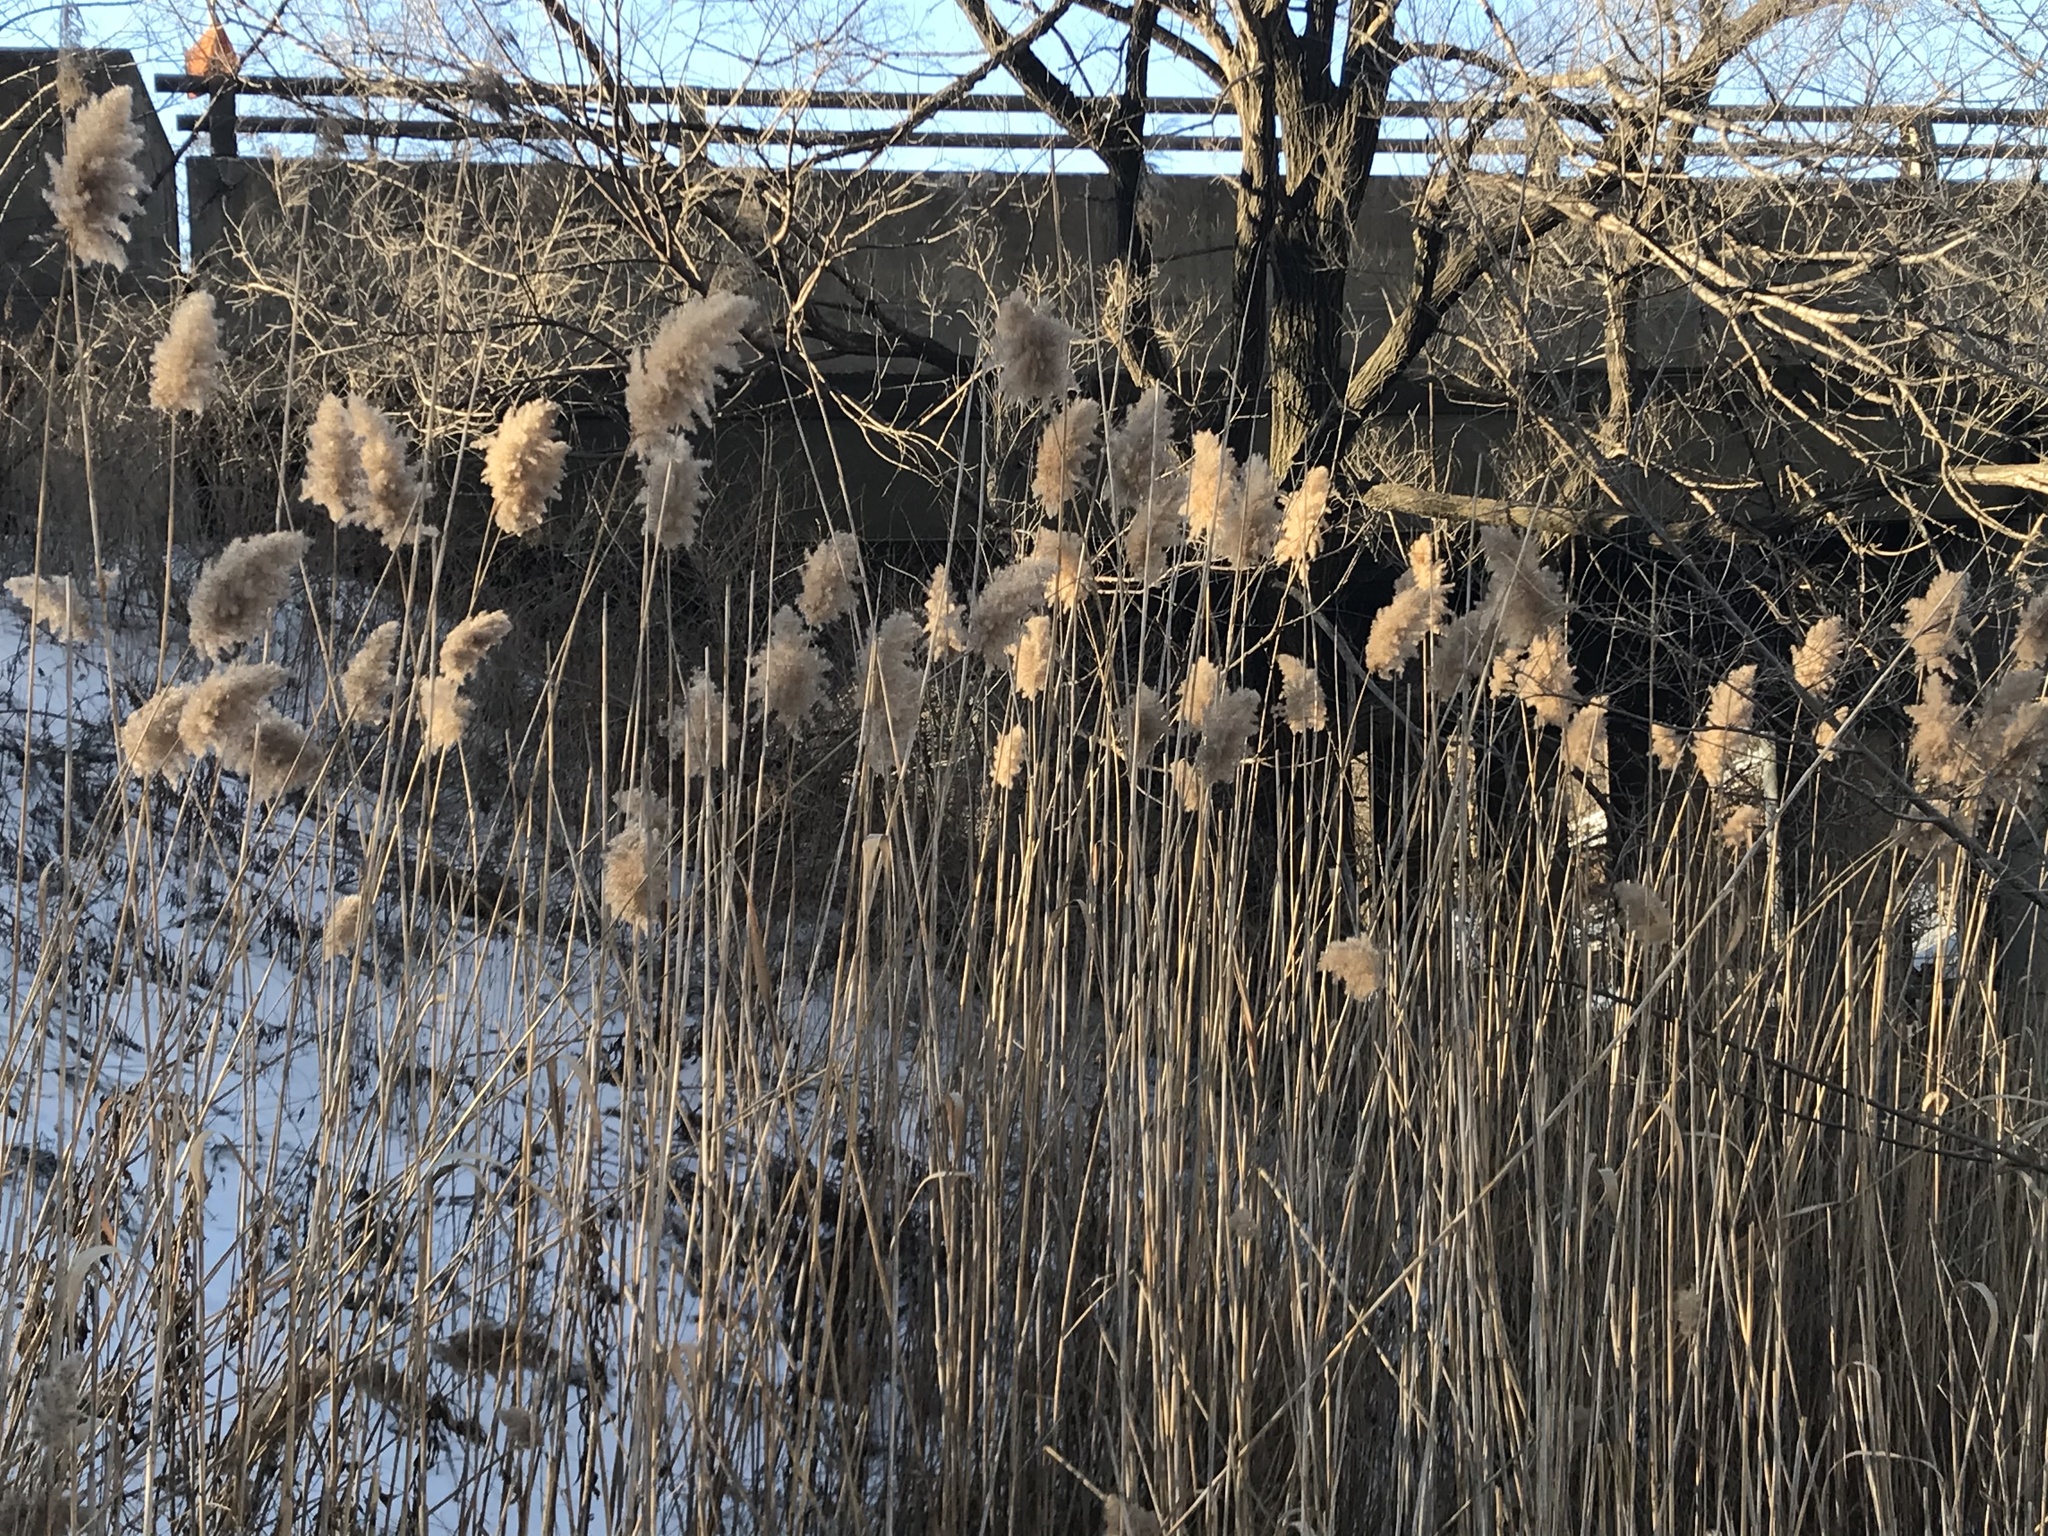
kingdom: Plantae
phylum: Tracheophyta
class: Liliopsida
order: Poales
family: Poaceae
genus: Phragmites
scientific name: Phragmites australis
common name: Common reed
